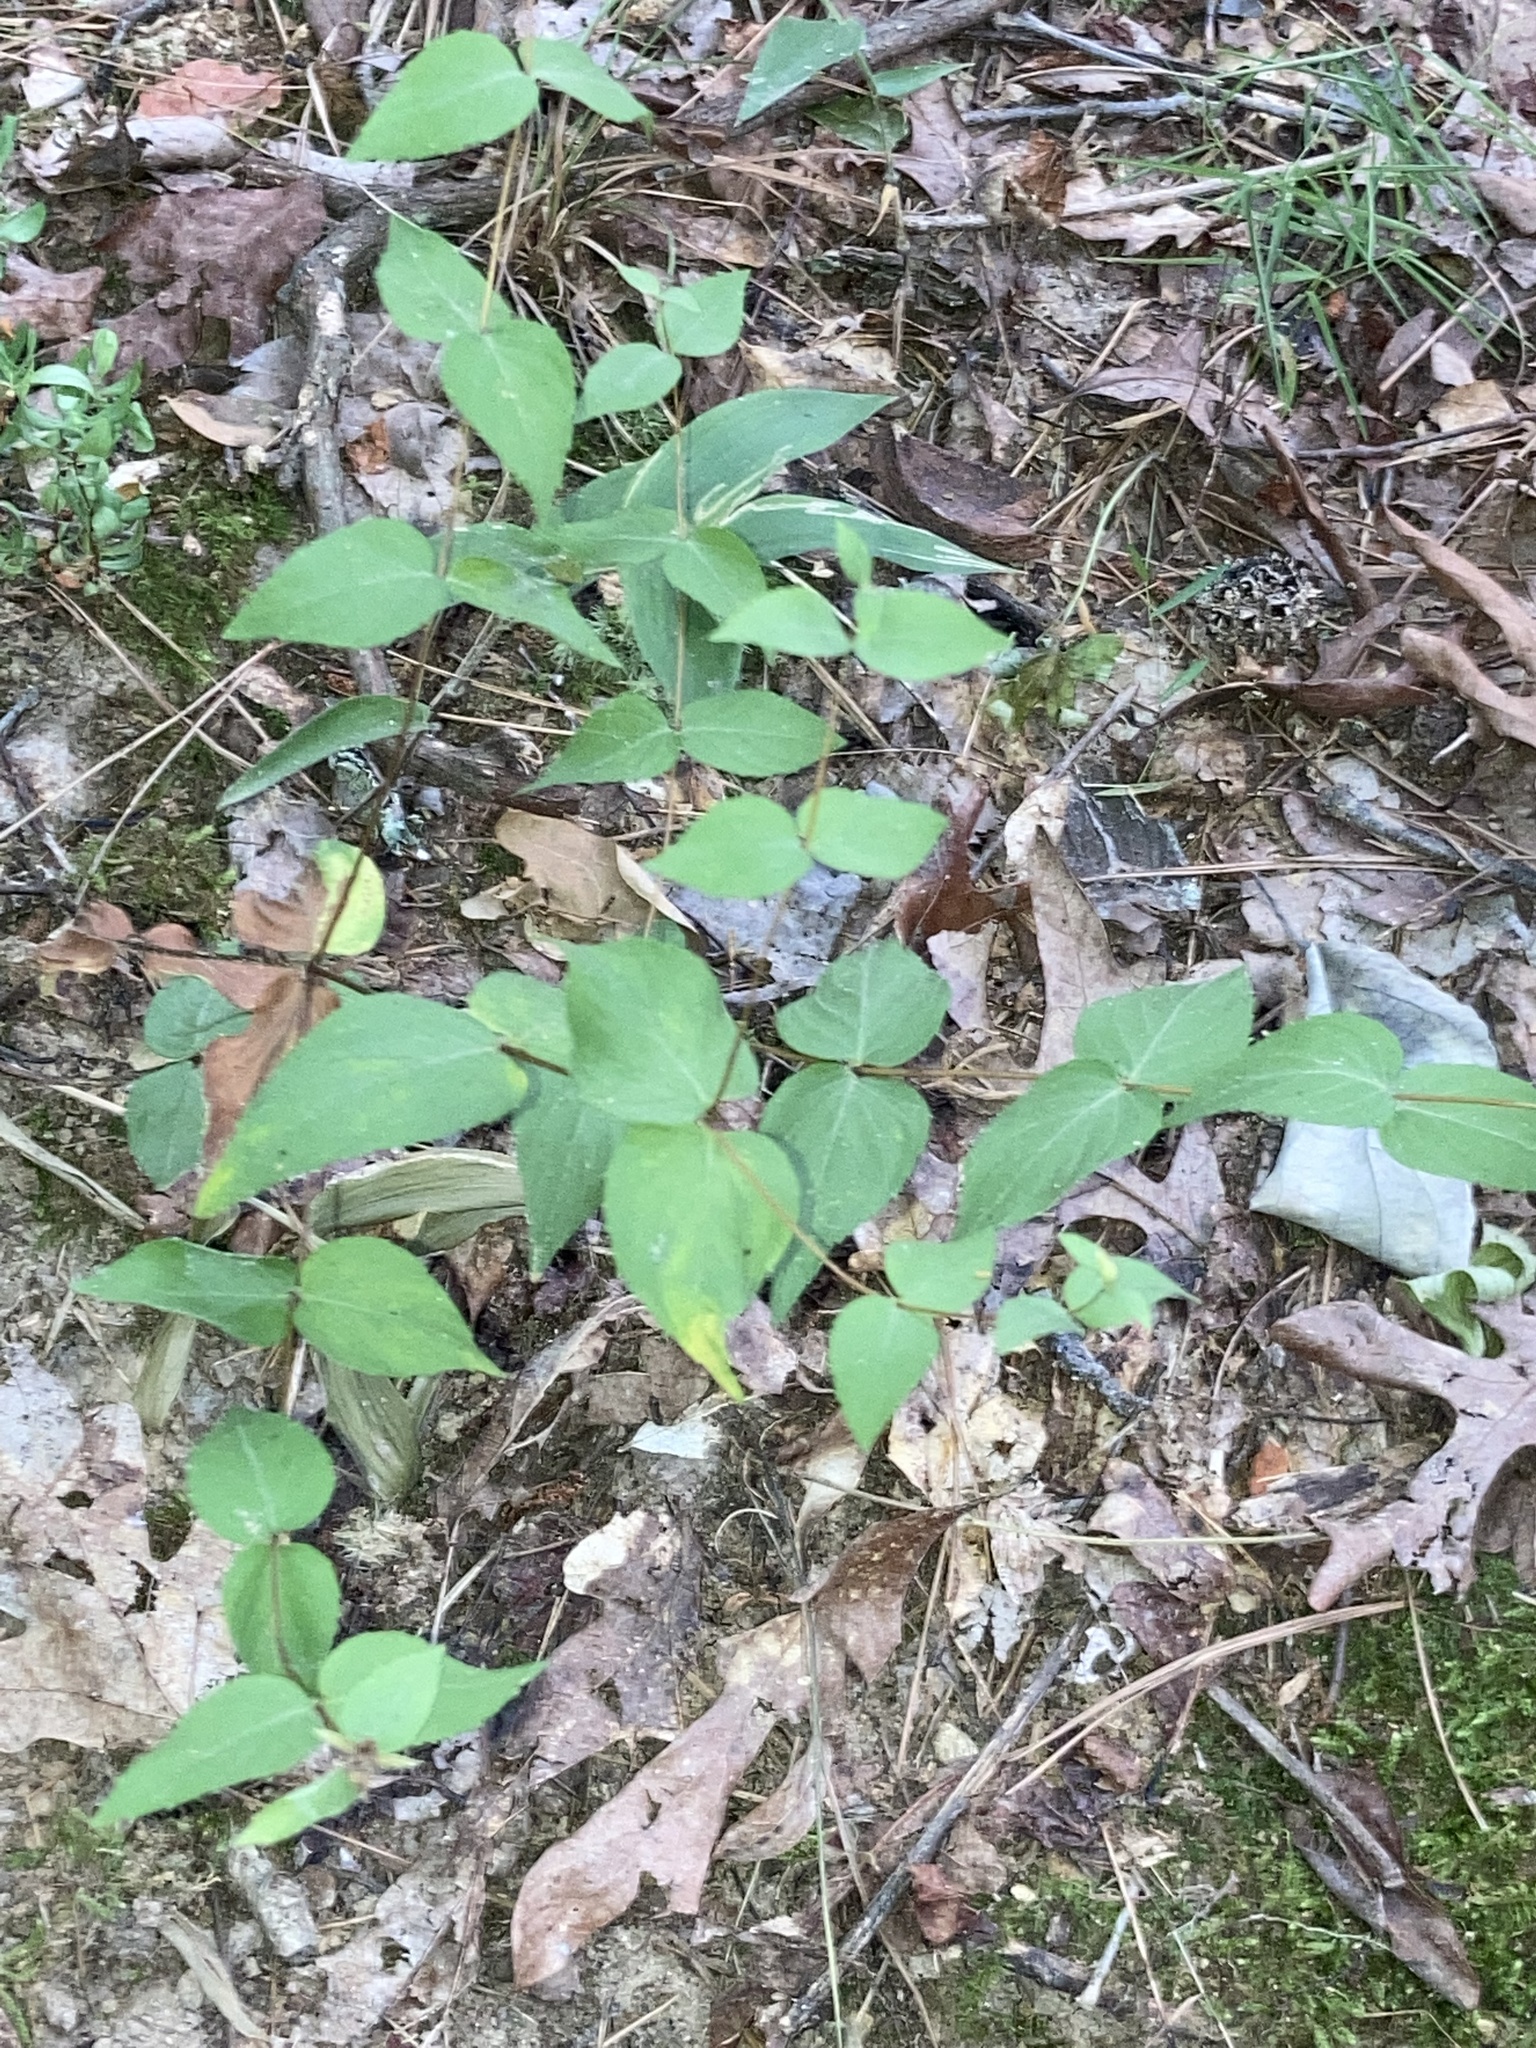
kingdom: Plantae
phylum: Tracheophyta
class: Magnoliopsida
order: Lamiales
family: Lamiaceae
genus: Cunila
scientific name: Cunila origanoides
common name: American dittany
